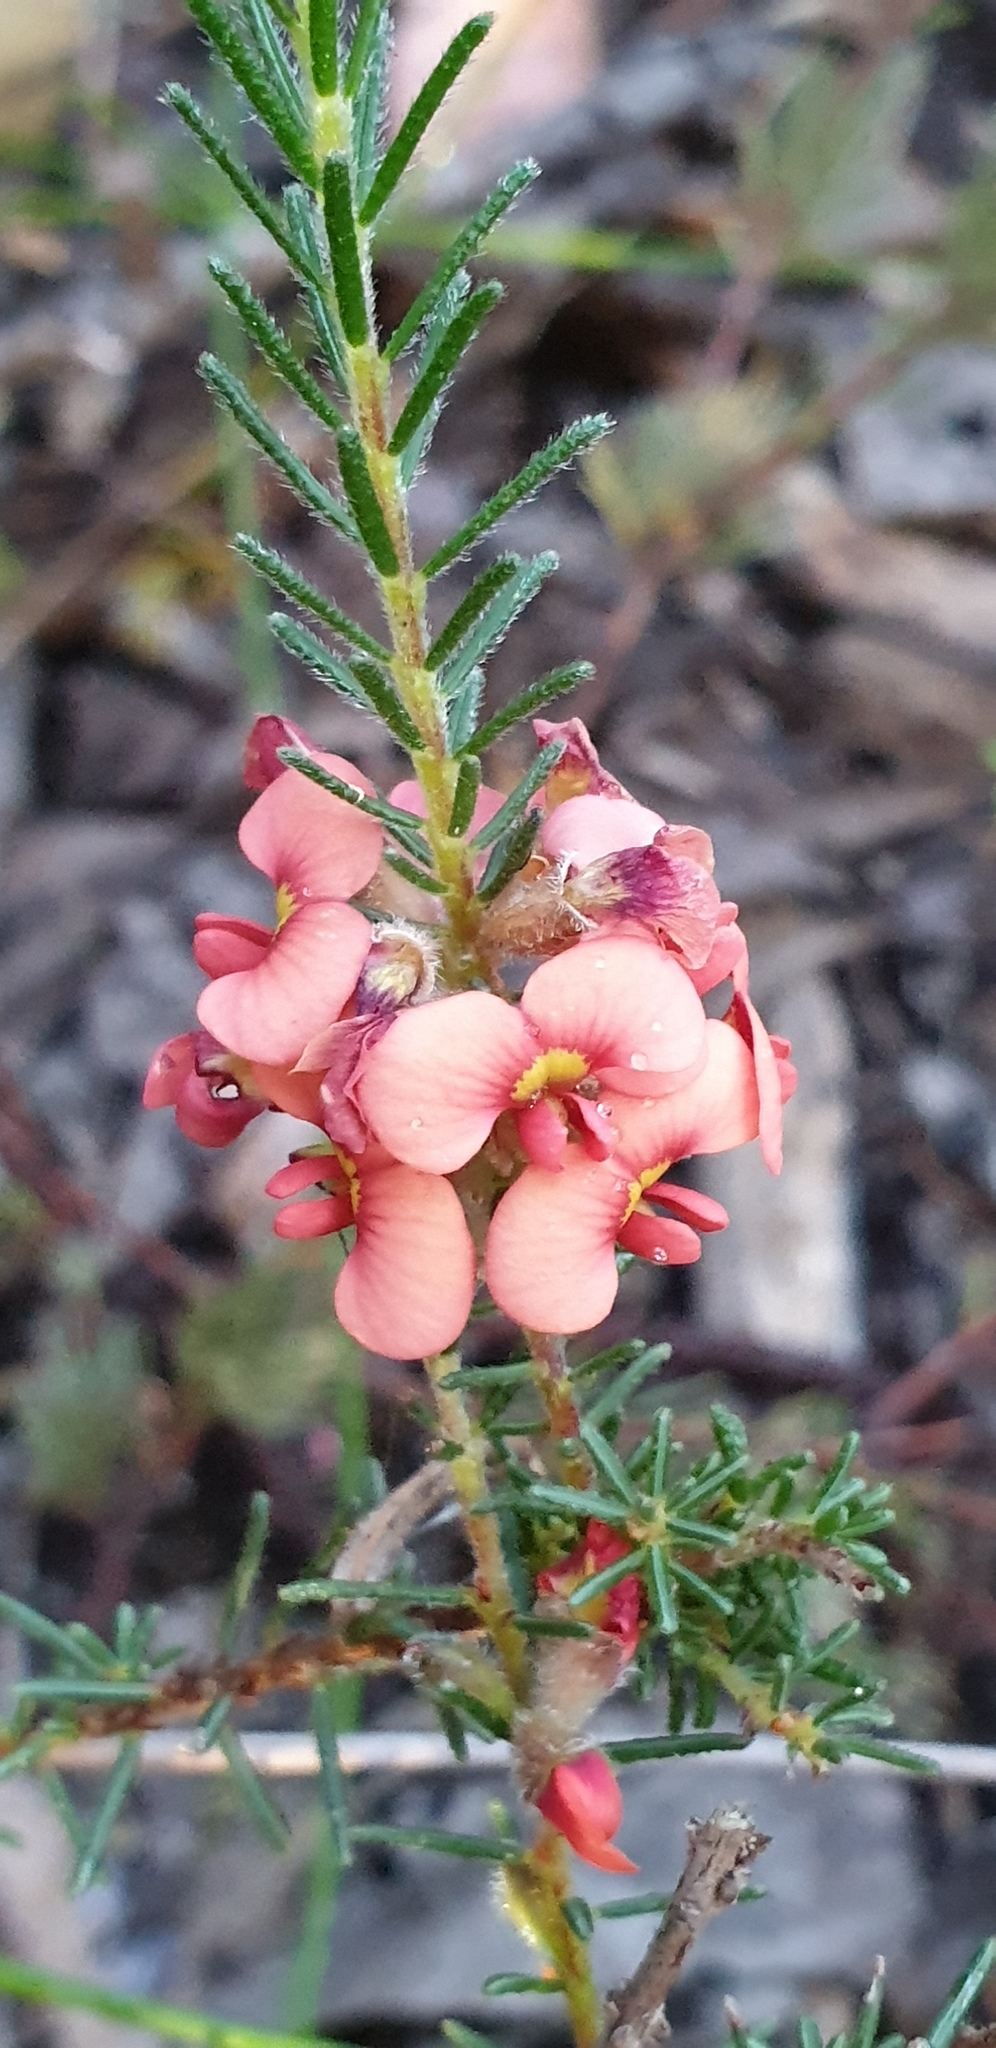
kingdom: Plantae
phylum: Tracheophyta
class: Magnoliopsida
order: Fabales
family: Fabaceae
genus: Dillwynia
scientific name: Dillwynia sericea
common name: Showy parrot-pea
